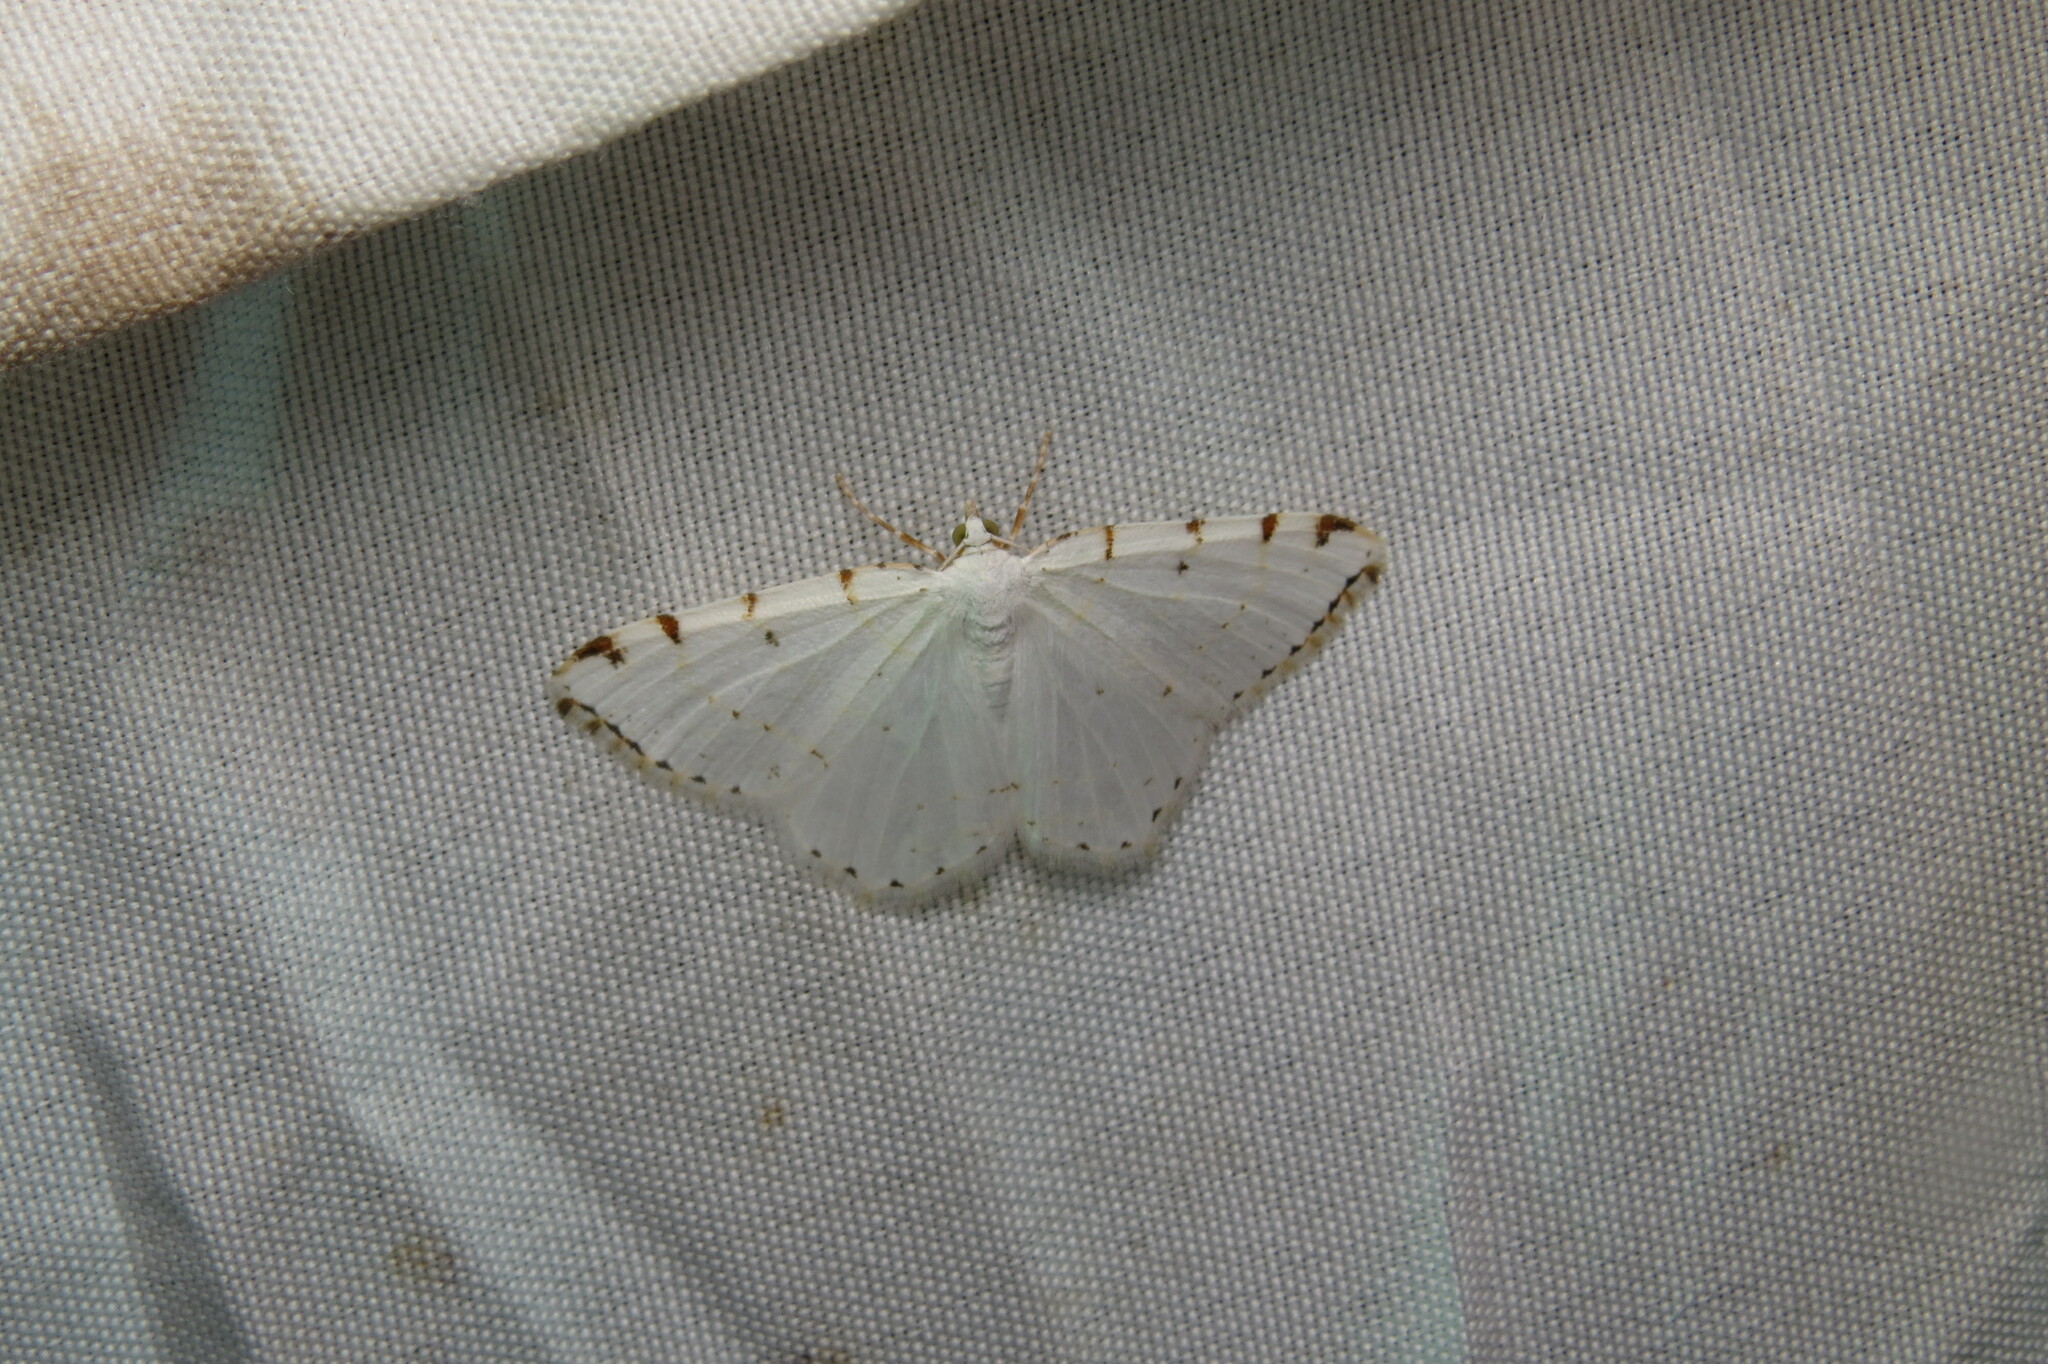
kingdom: Animalia
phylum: Arthropoda
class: Insecta
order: Lepidoptera
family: Geometridae
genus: Macaria
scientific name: Macaria pustularia
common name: Lesser maple spanworm moth
